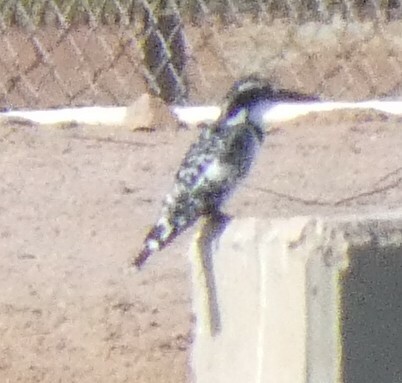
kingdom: Animalia
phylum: Chordata
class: Aves
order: Coraciiformes
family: Alcedinidae
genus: Ceryle
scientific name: Ceryle rudis
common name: Pied kingfisher
